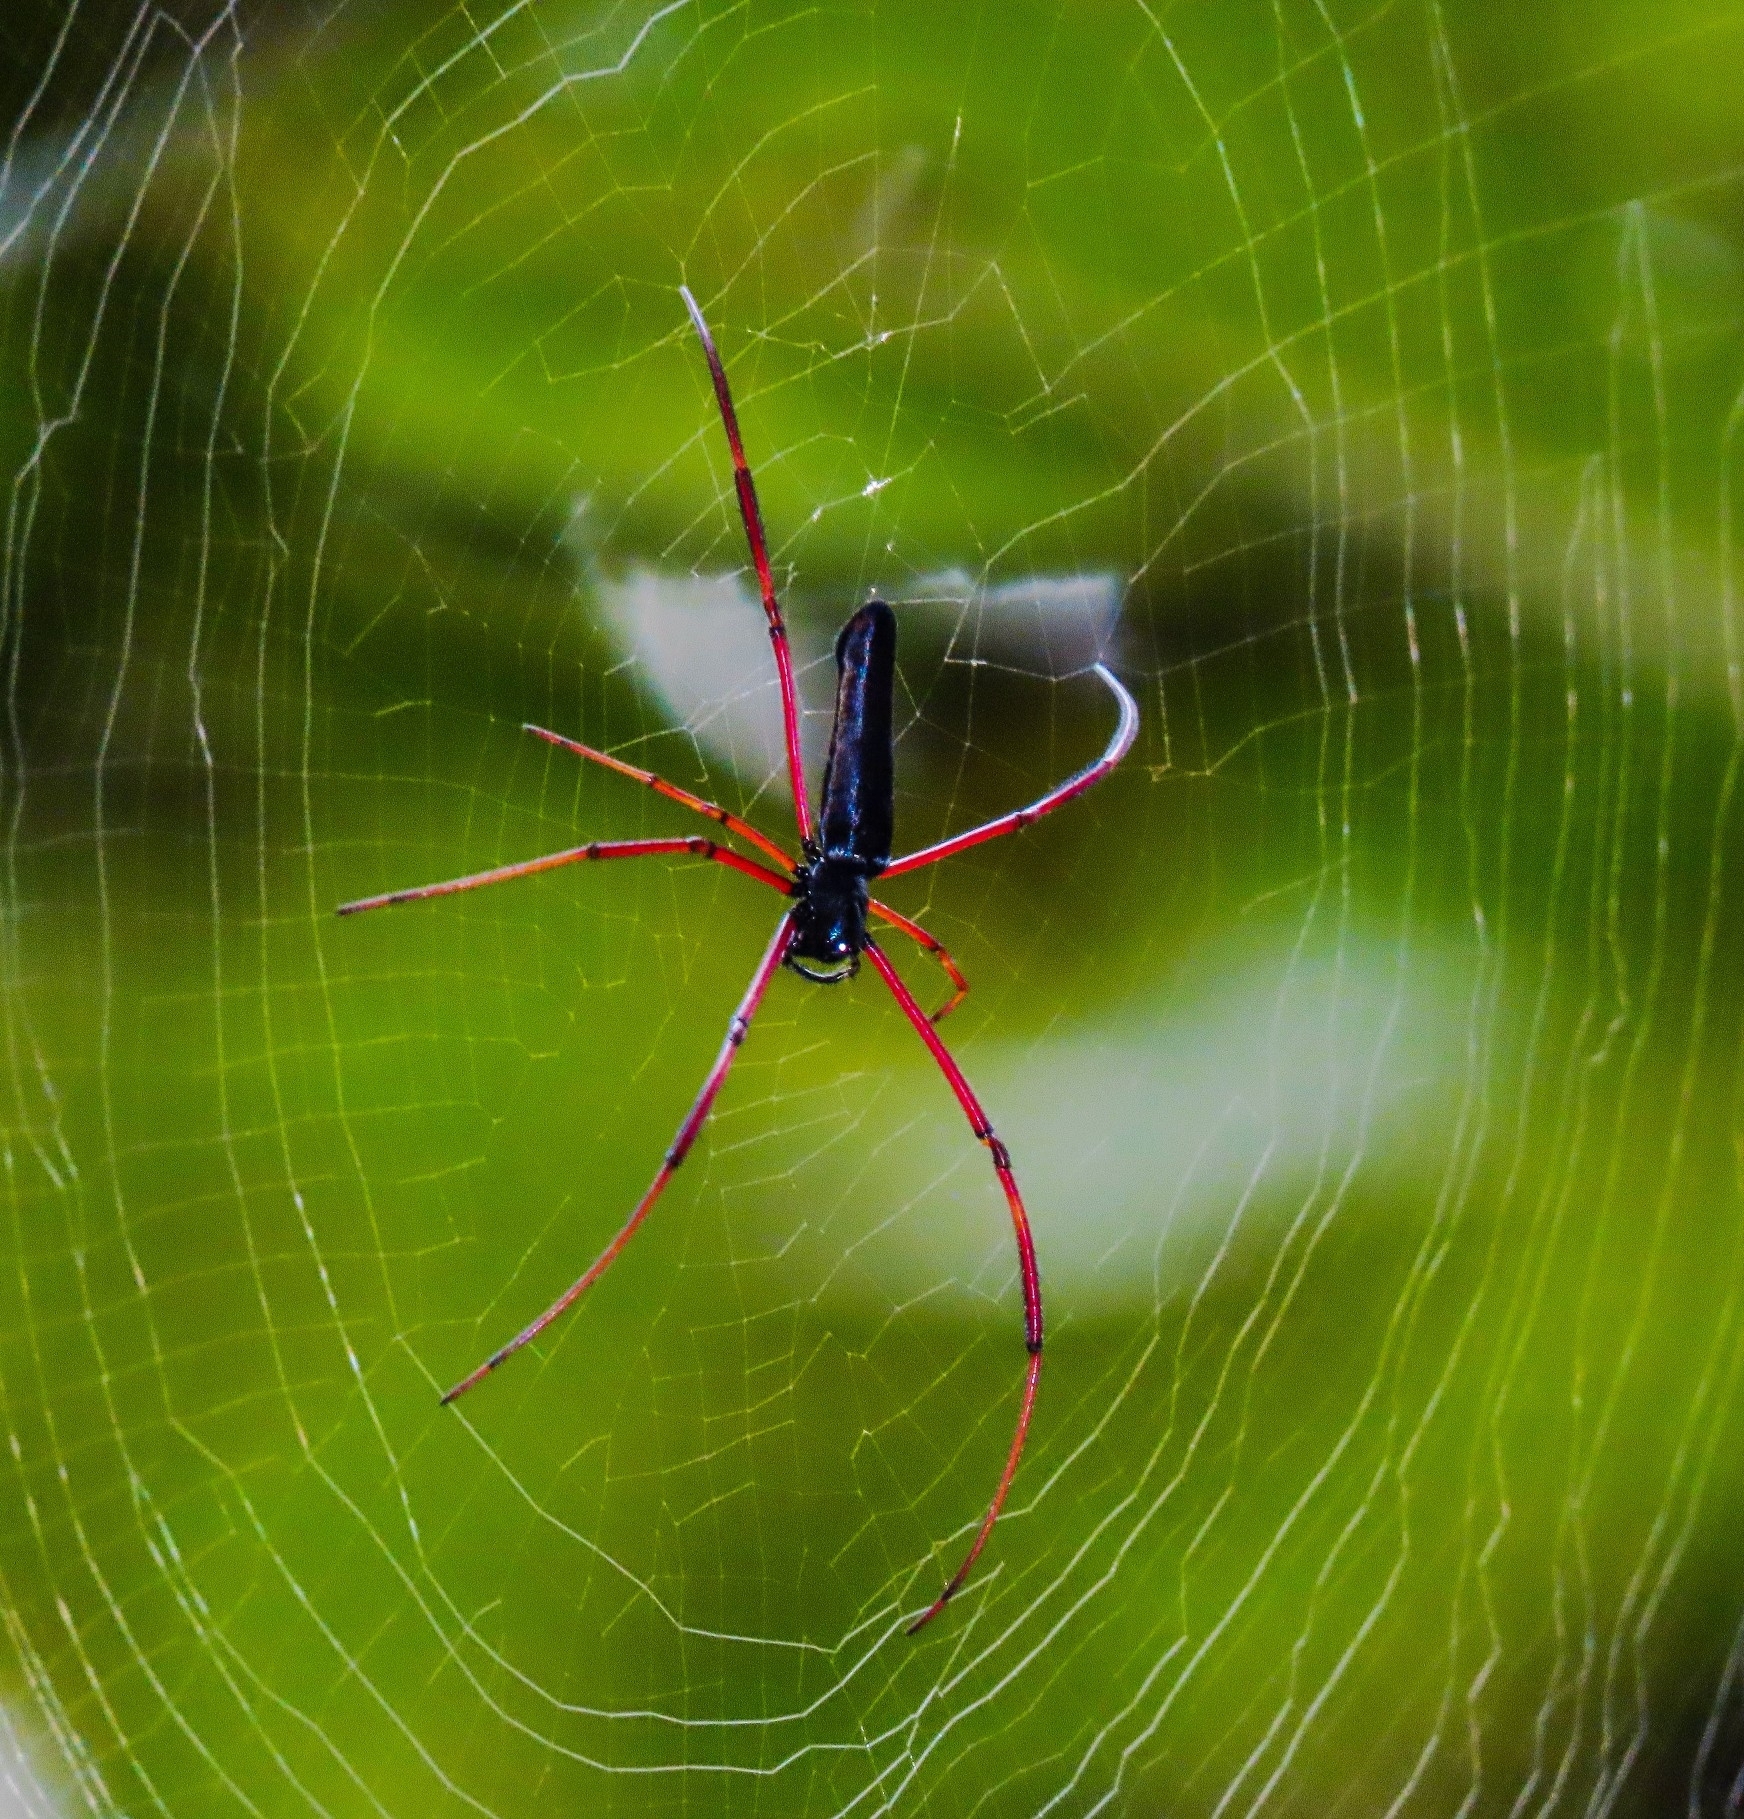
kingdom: Animalia
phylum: Arthropoda
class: Arachnida
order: Araneae
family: Araneidae
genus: Nephila
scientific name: Nephila kuhli
